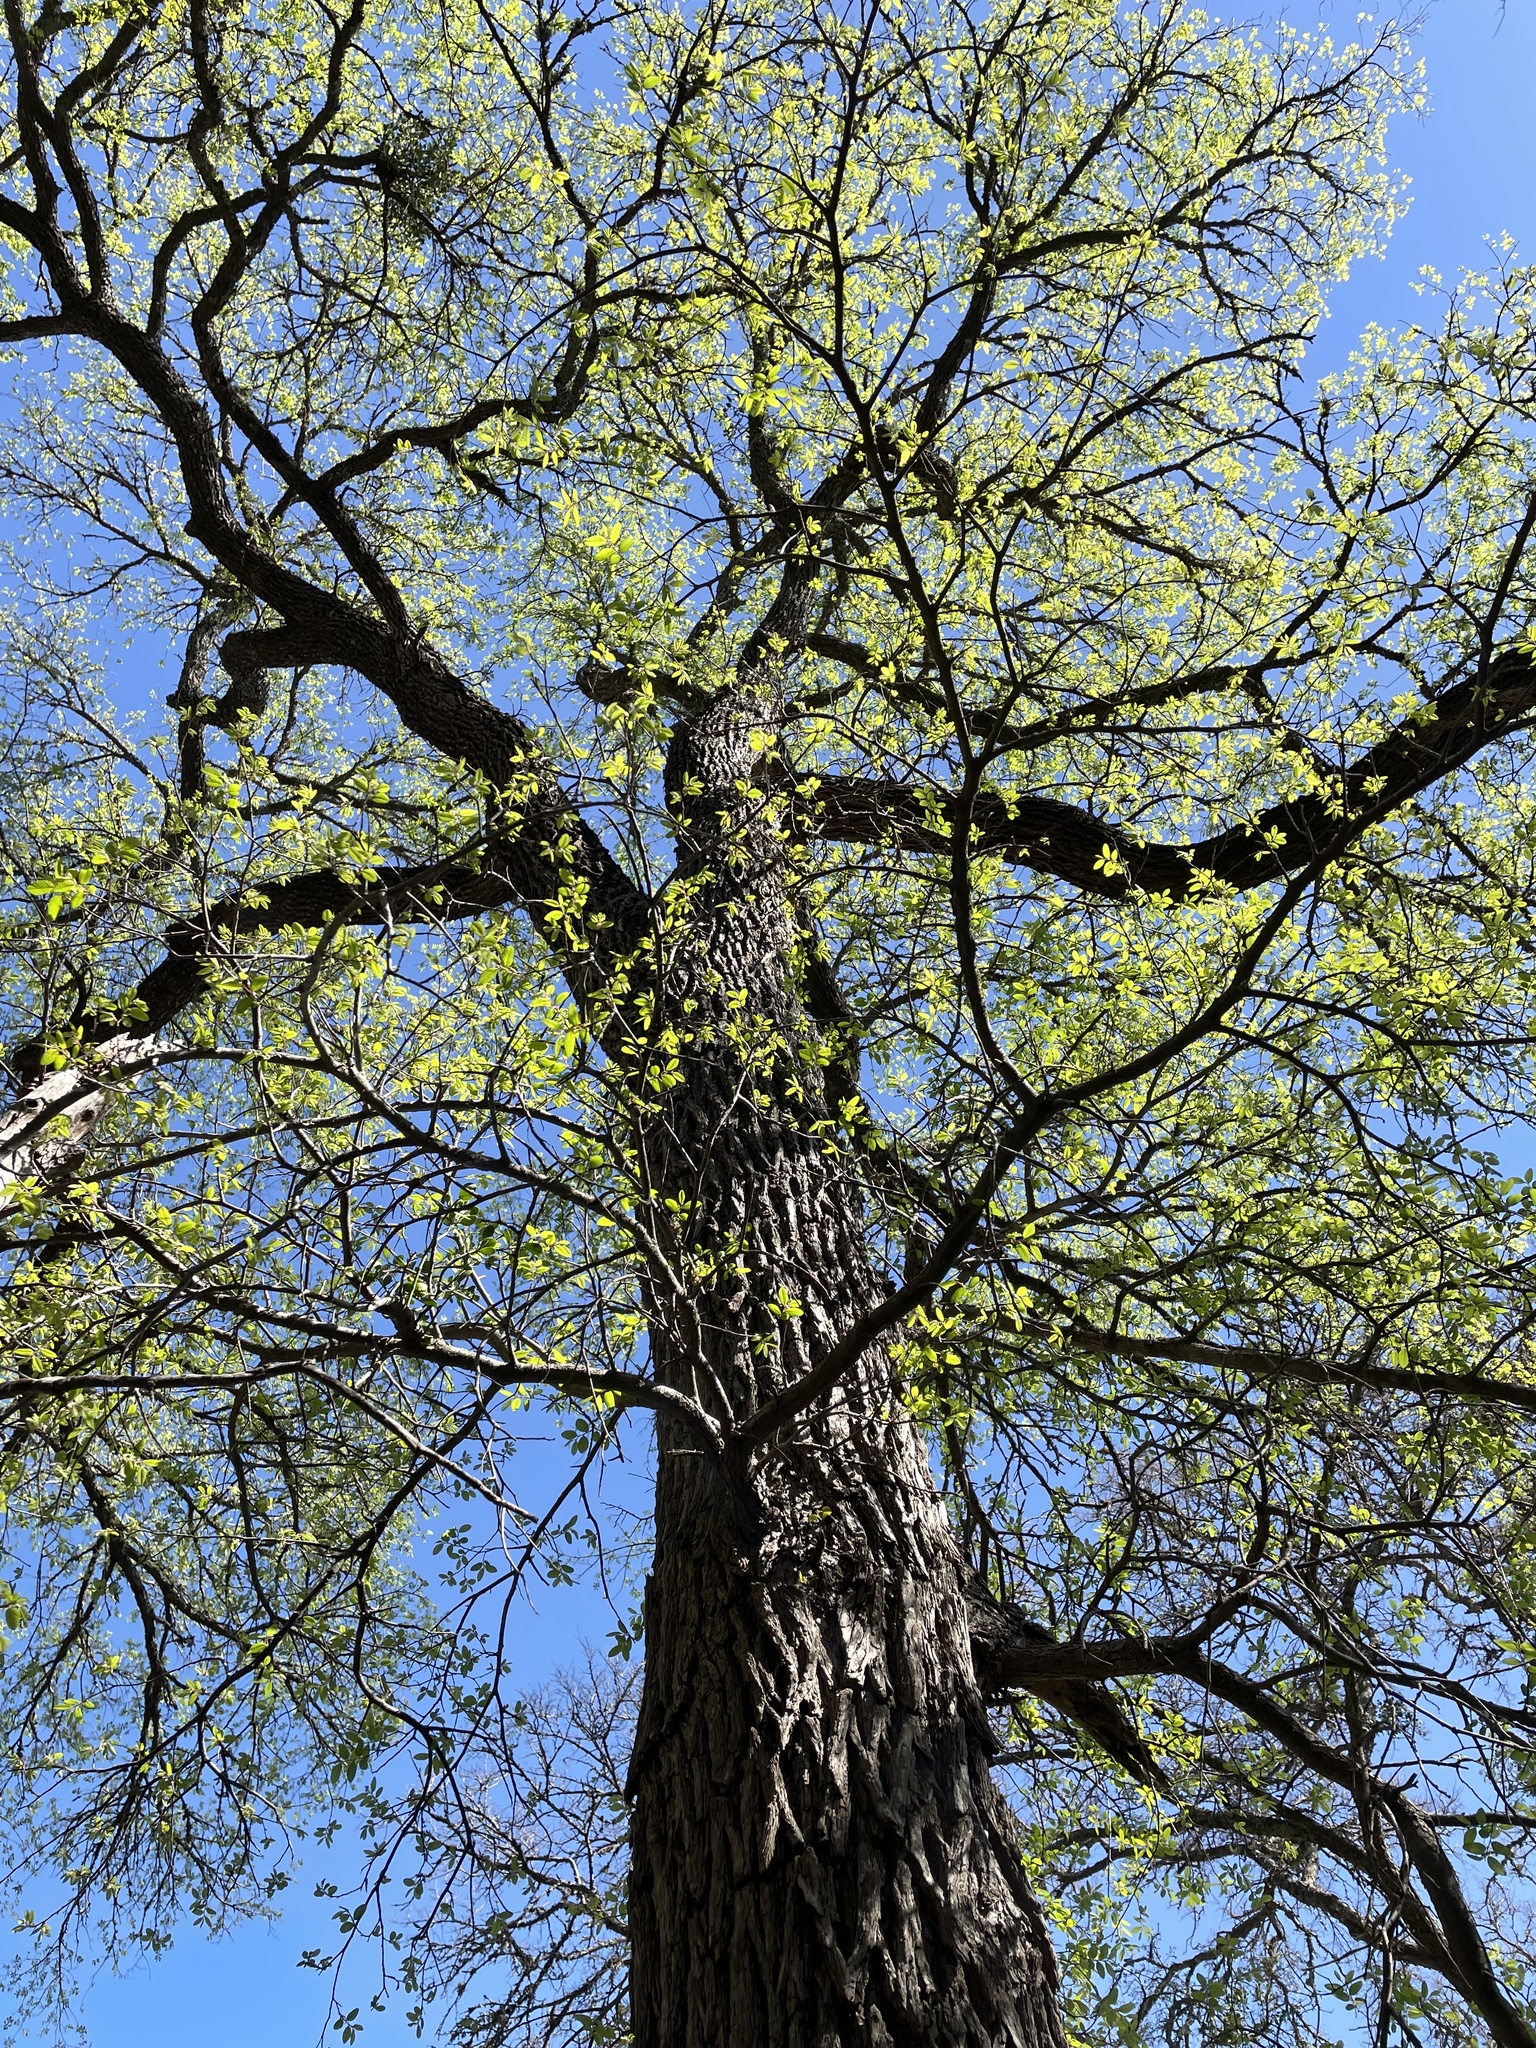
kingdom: Plantae
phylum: Tracheophyta
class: Magnoliopsida
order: Rosales
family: Ulmaceae
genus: Ulmus
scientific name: Ulmus crassifolia
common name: Basket elm
